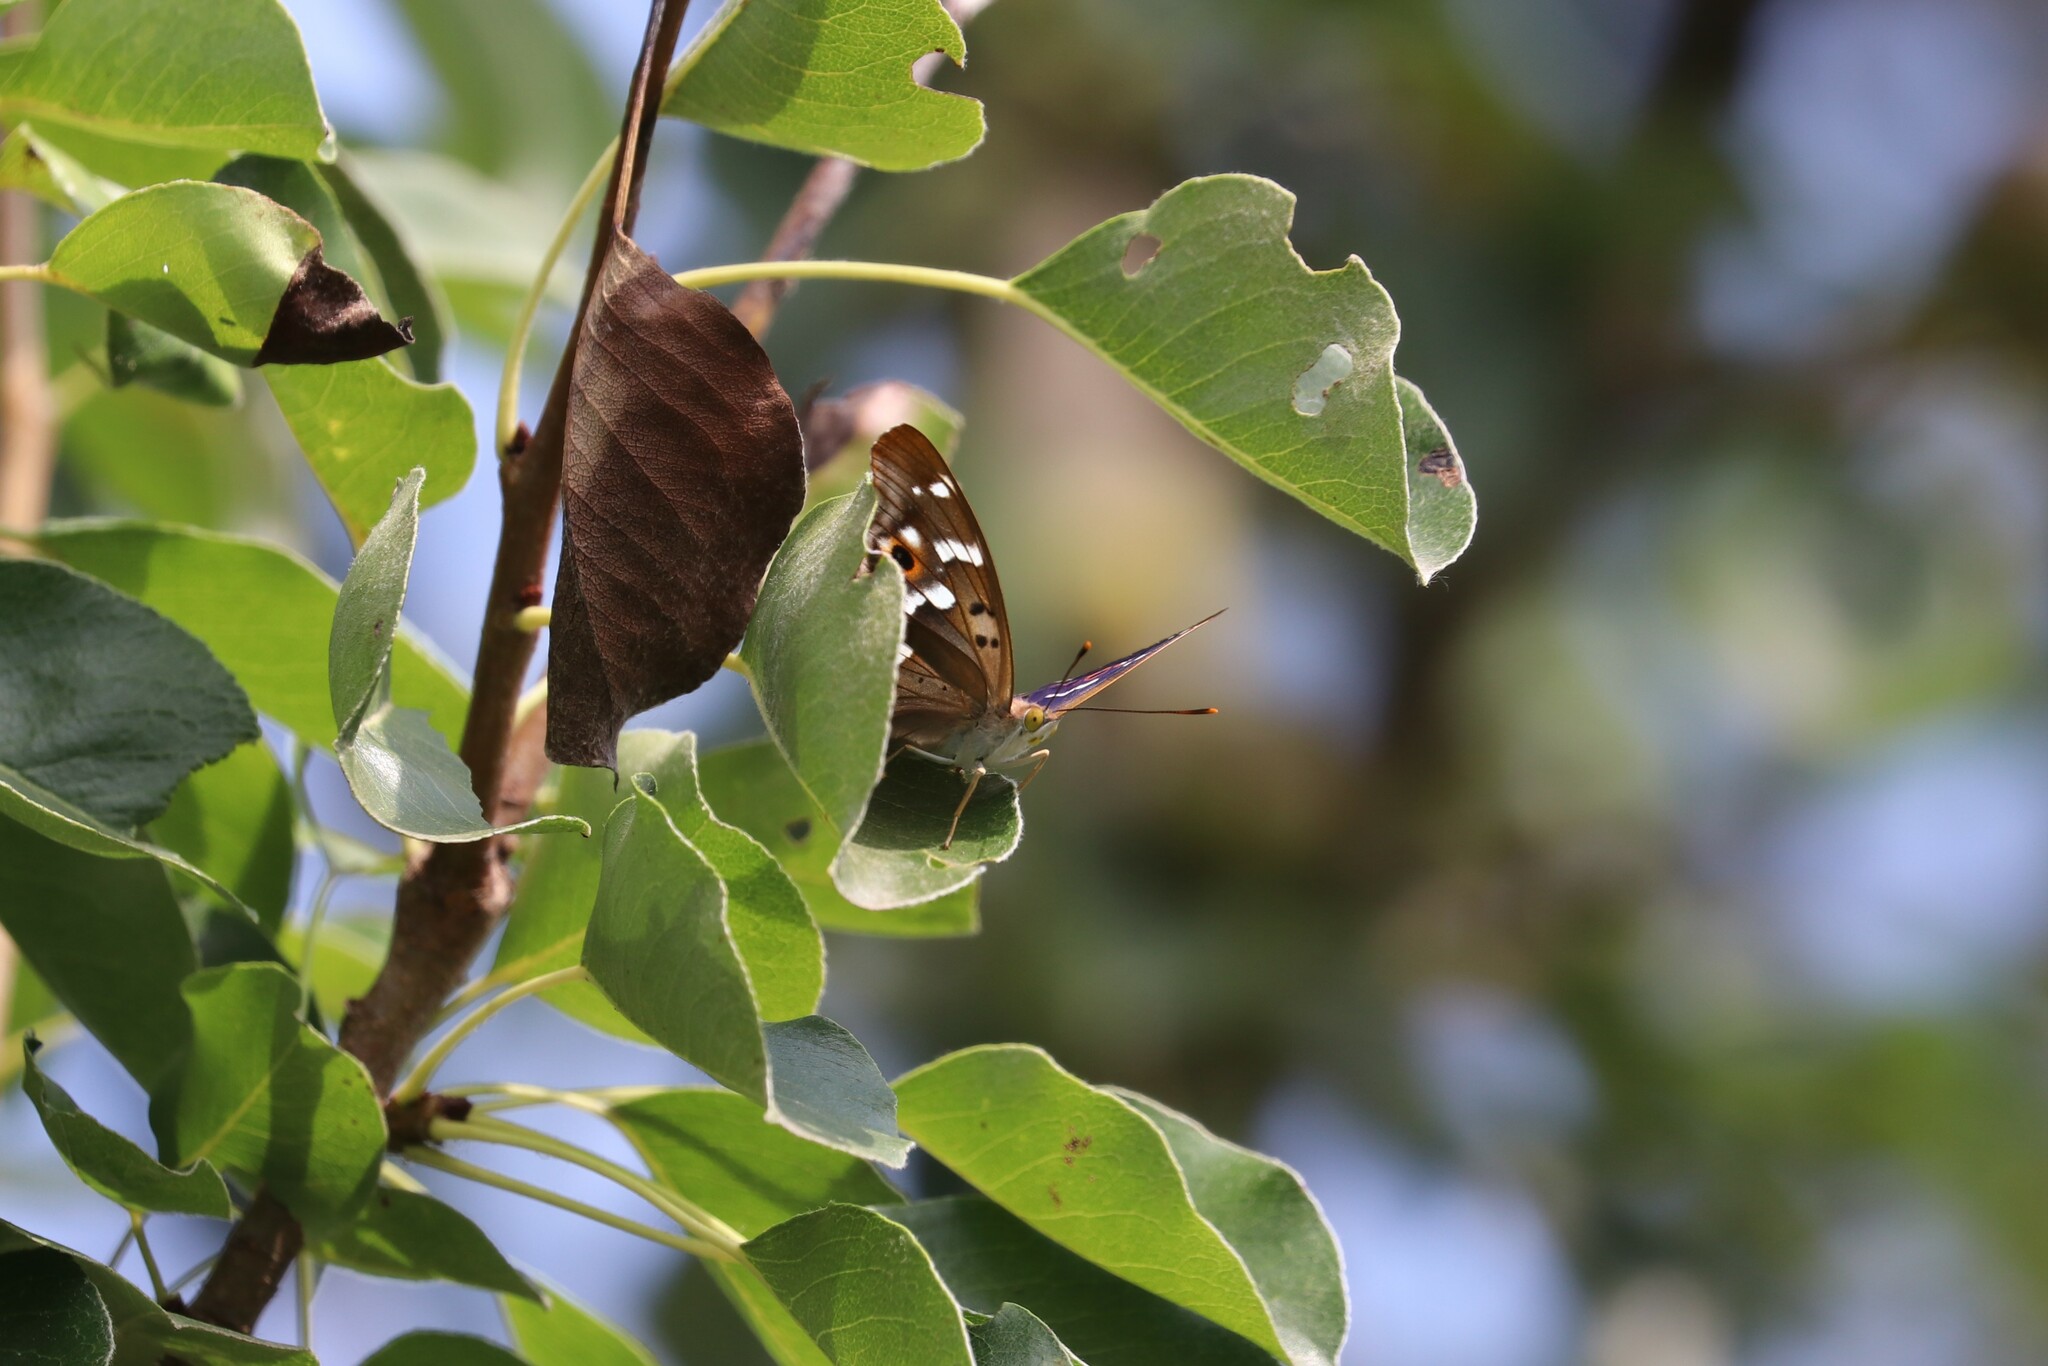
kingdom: Animalia
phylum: Arthropoda
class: Insecta
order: Lepidoptera
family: Nymphalidae
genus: Apatura
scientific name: Apatura ilia
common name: Lesser purple emperor
